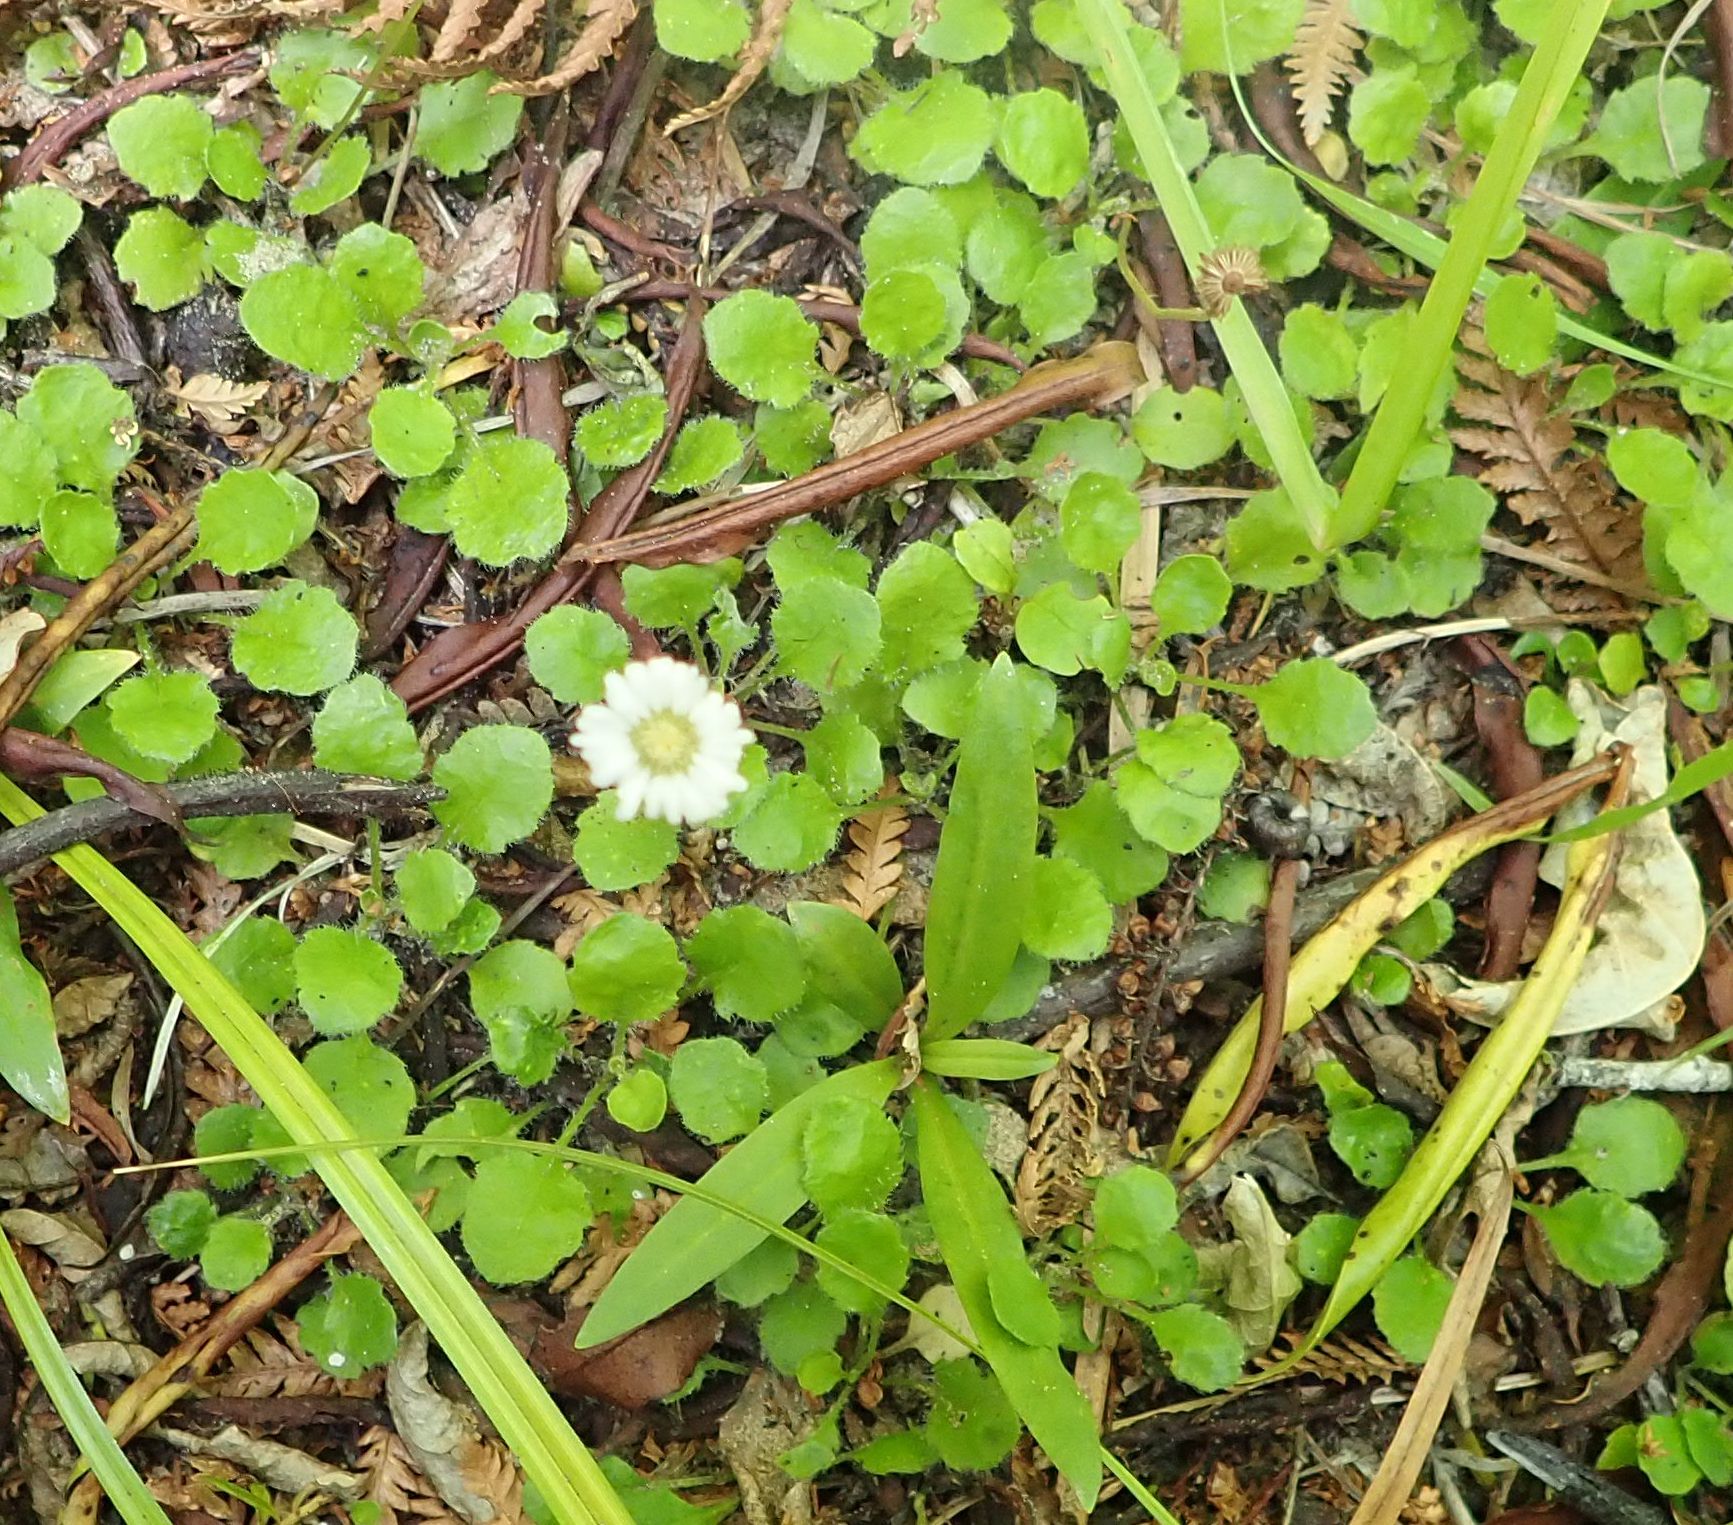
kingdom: Plantae
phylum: Tracheophyta
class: Magnoliopsida
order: Asterales
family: Asteraceae
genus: Lagenophora
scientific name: Lagenophora pumila
